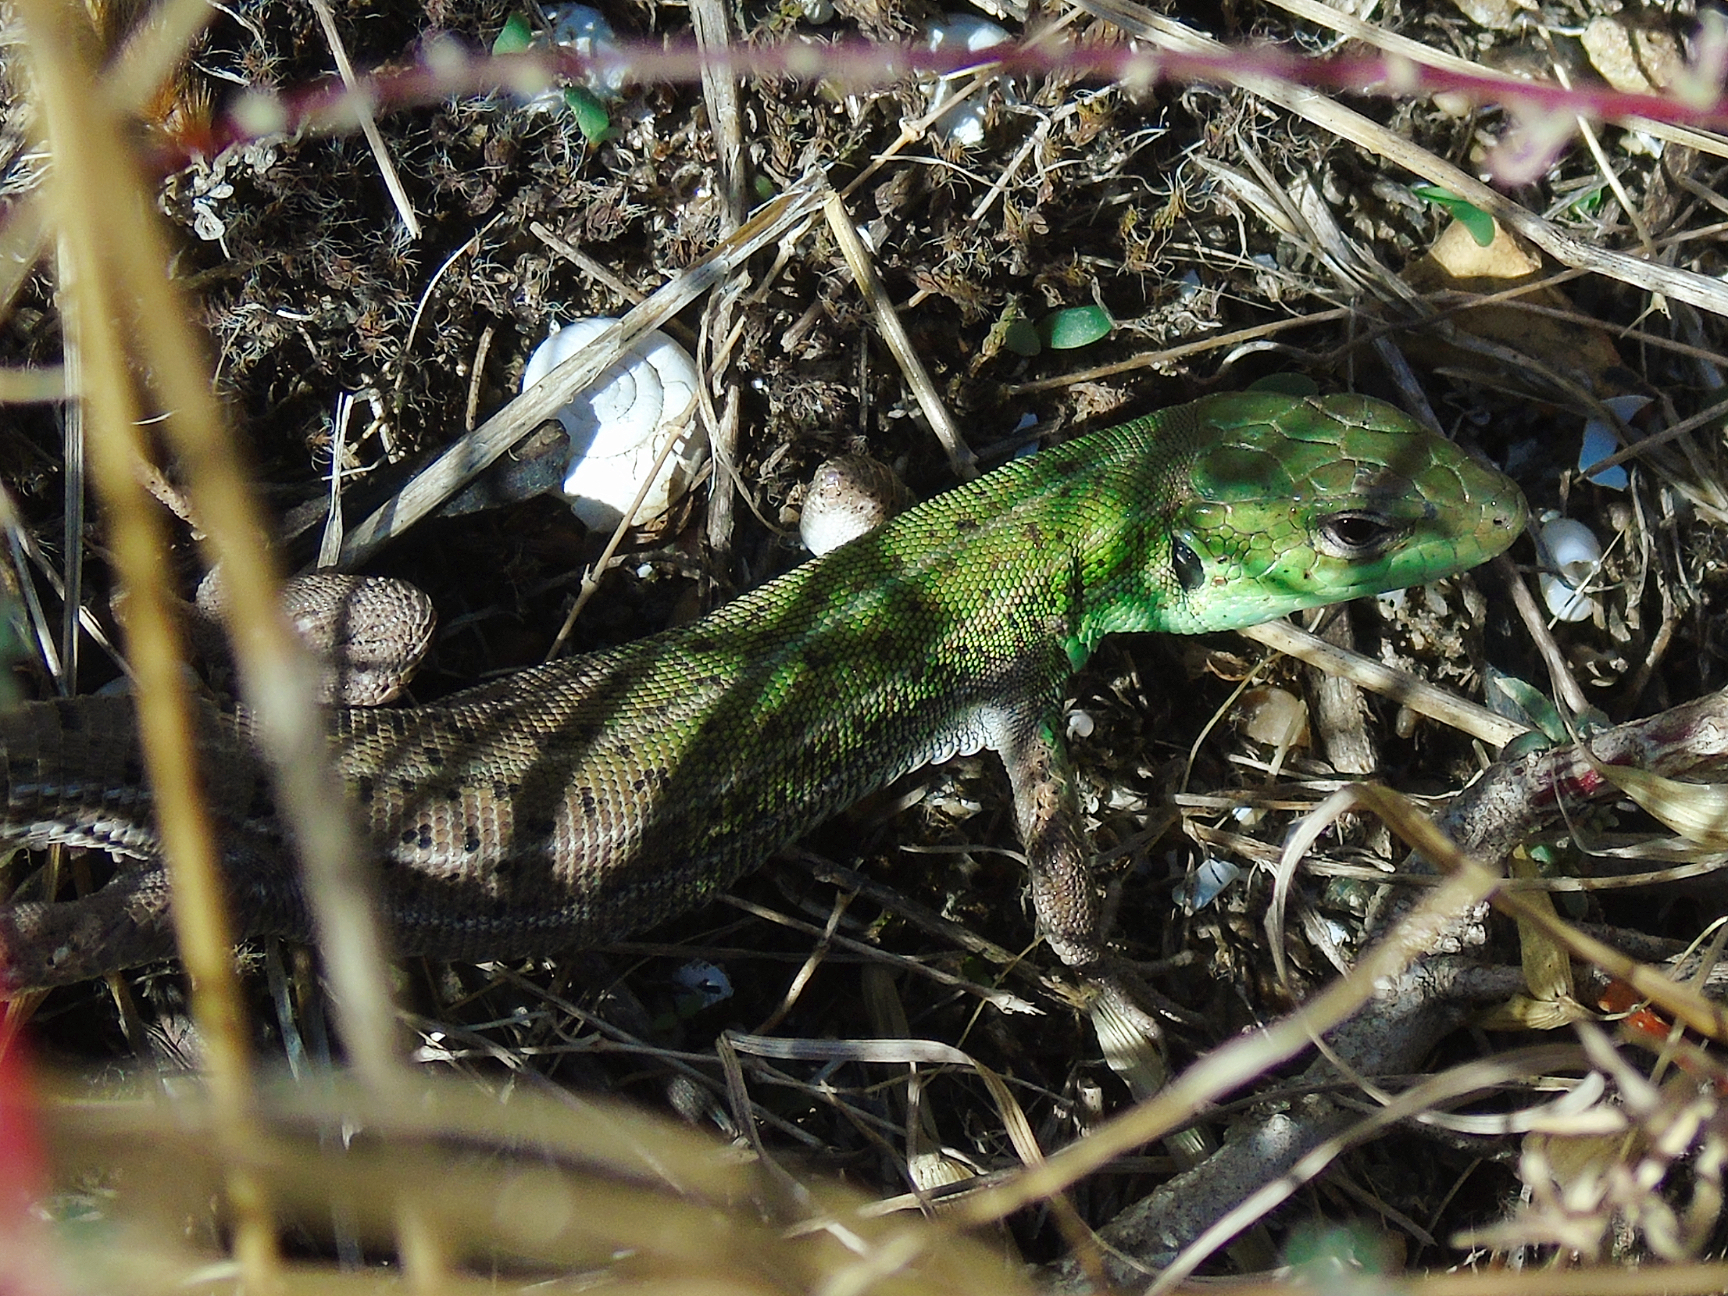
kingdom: Animalia
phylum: Chordata
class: Squamata
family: Lacertidae
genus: Lacerta
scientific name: Lacerta strigata
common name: Caspian green lizard
